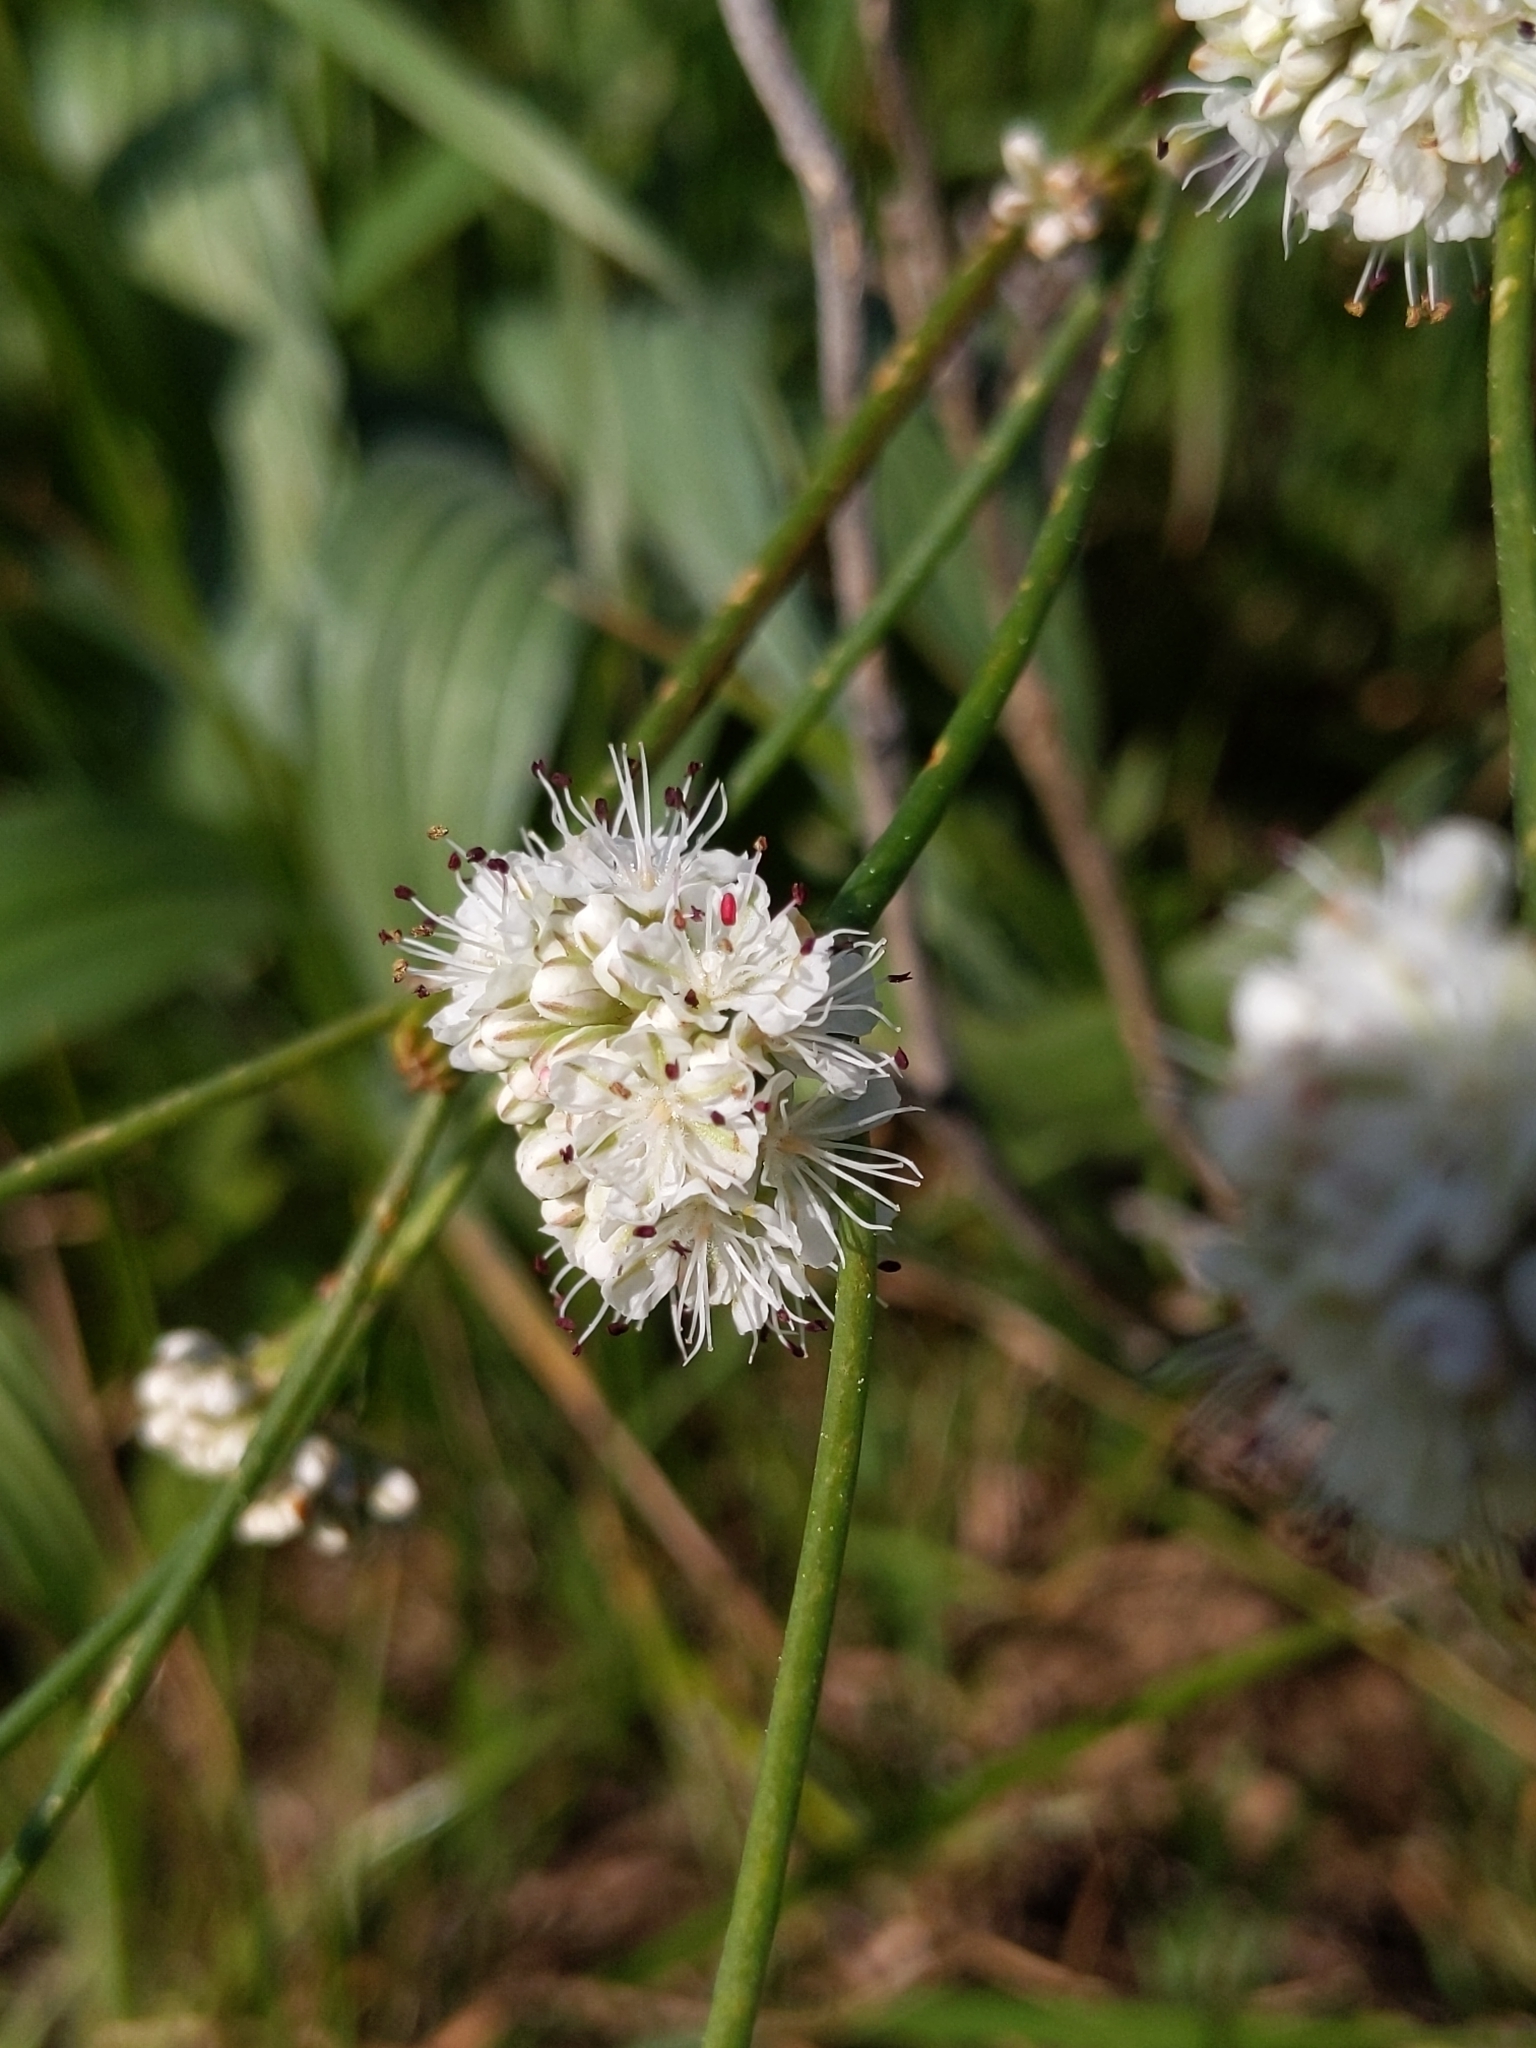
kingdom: Plantae
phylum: Tracheophyta
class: Magnoliopsida
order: Caryophyllales
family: Polygonaceae
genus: Eriogonum
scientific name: Eriogonum nudum
